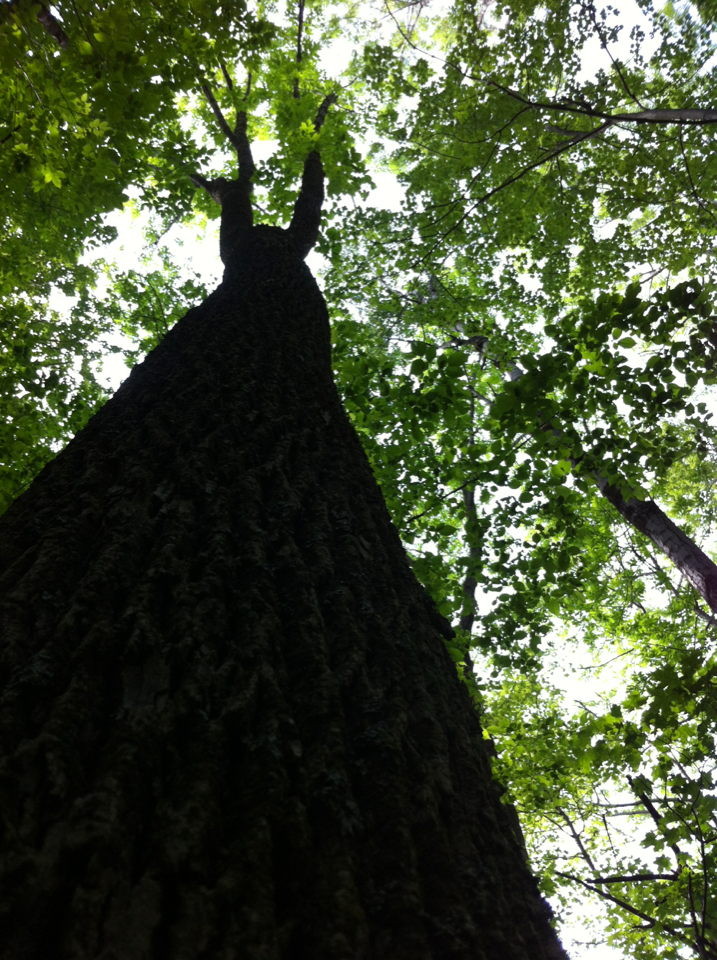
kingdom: Plantae
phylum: Tracheophyta
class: Magnoliopsida
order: Lamiales
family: Oleaceae
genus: Fraxinus
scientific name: Fraxinus americana
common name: White ash
